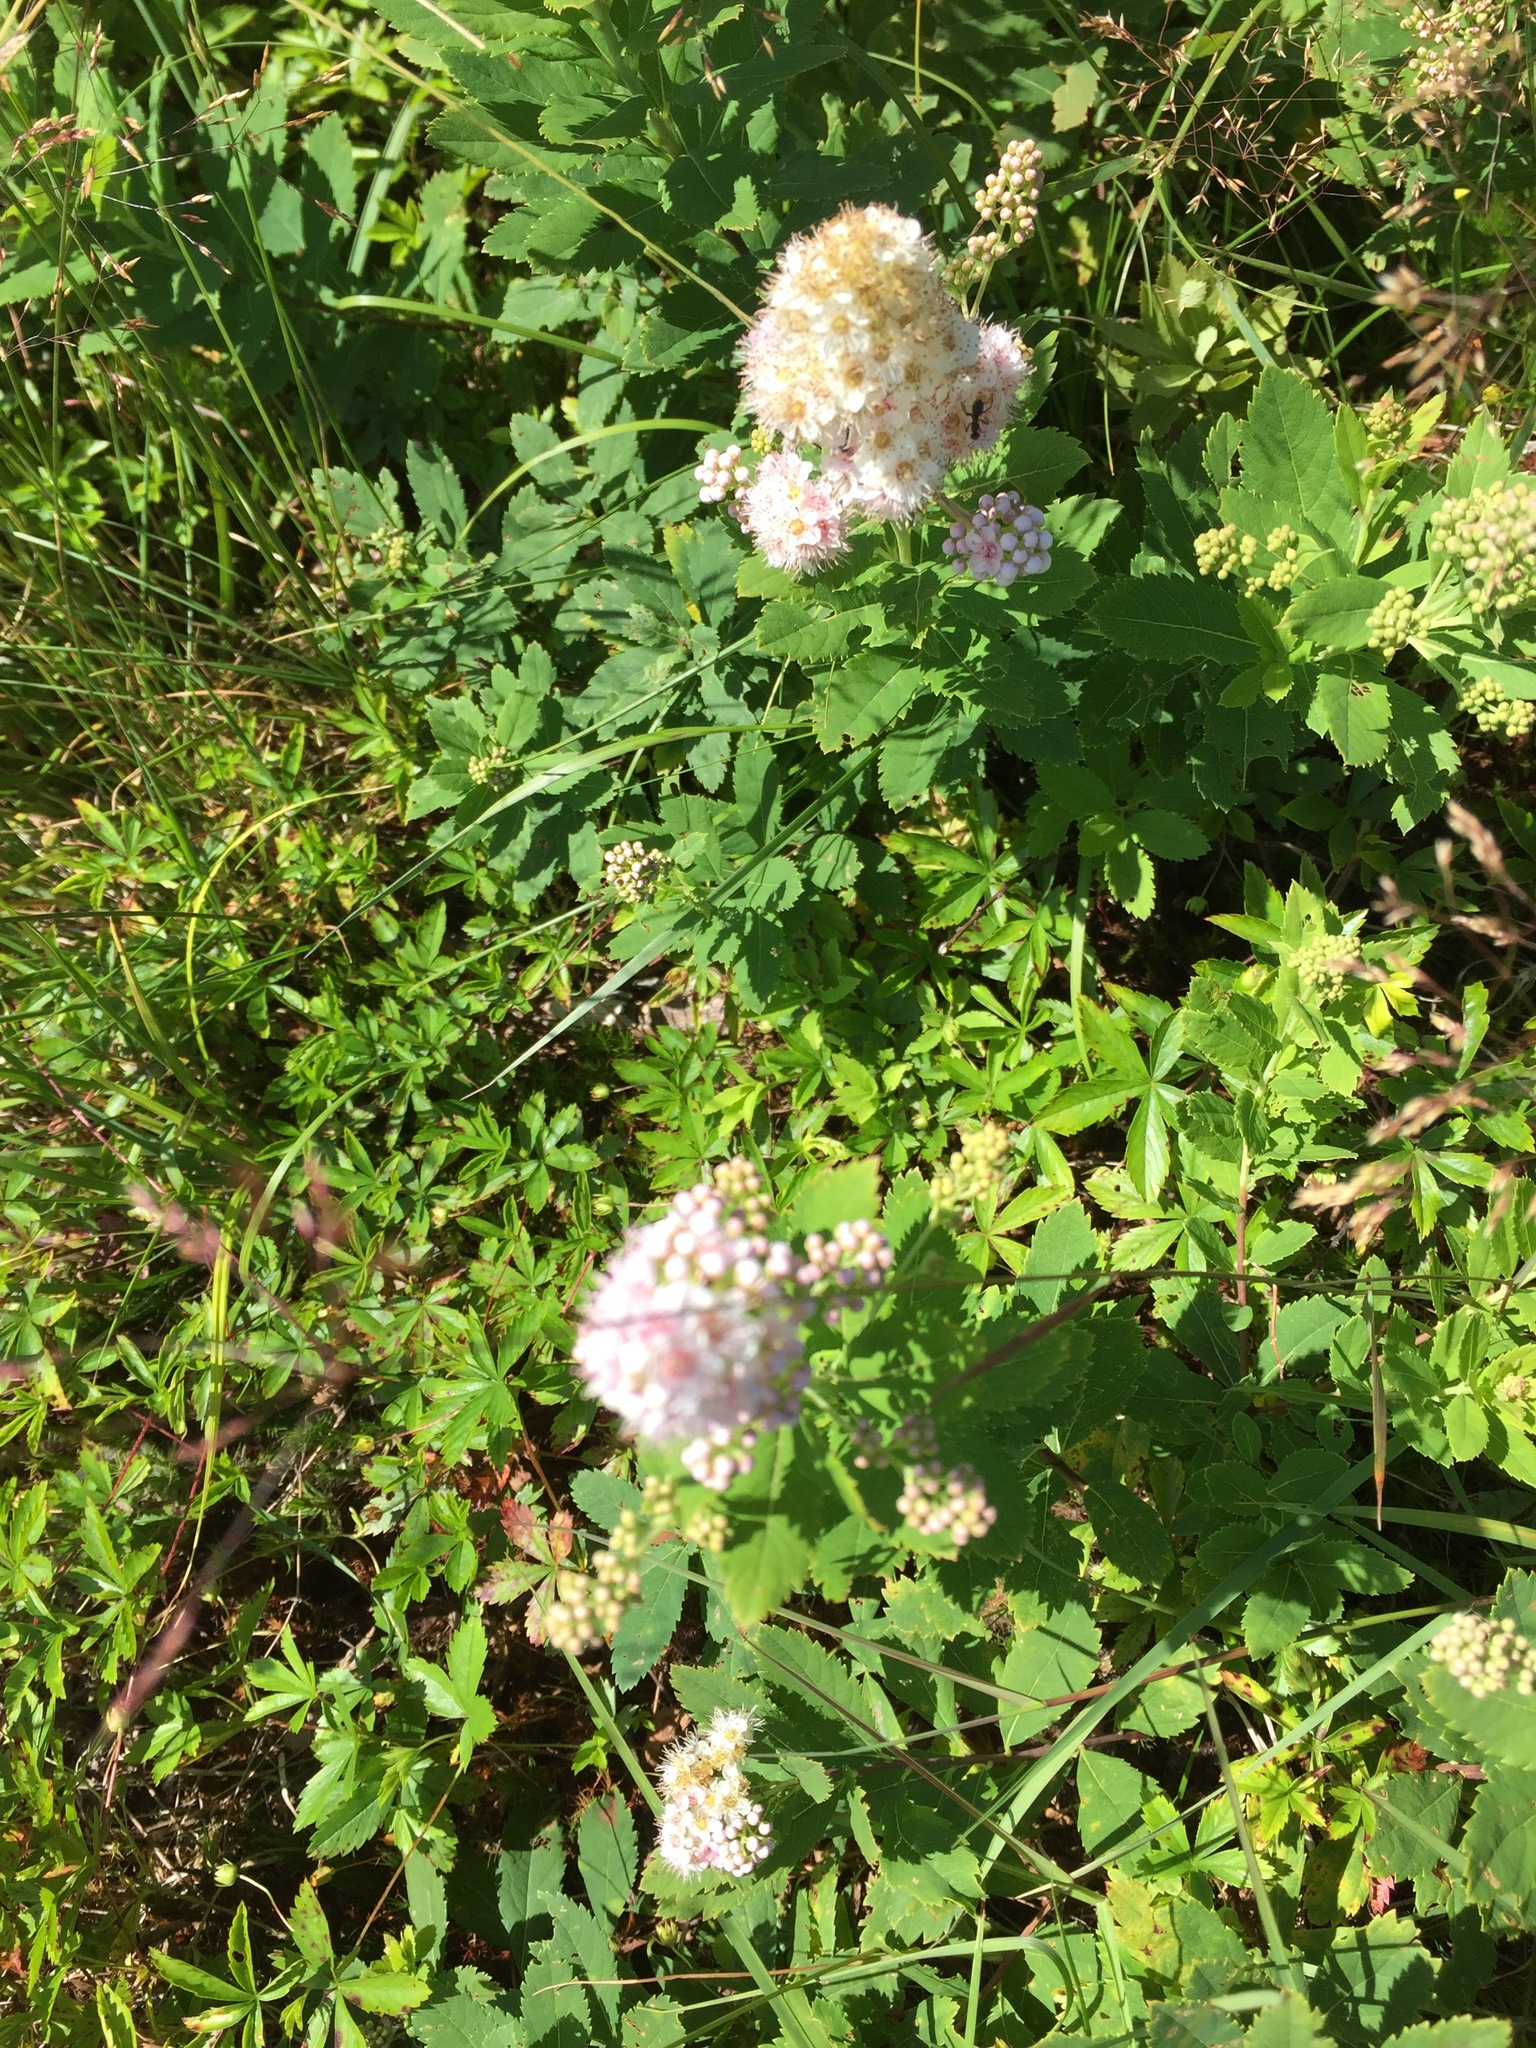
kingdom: Plantae
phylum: Tracheophyta
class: Magnoliopsida
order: Rosales
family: Rosaceae
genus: Spiraea
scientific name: Spiraea alba
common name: Pale bridewort
